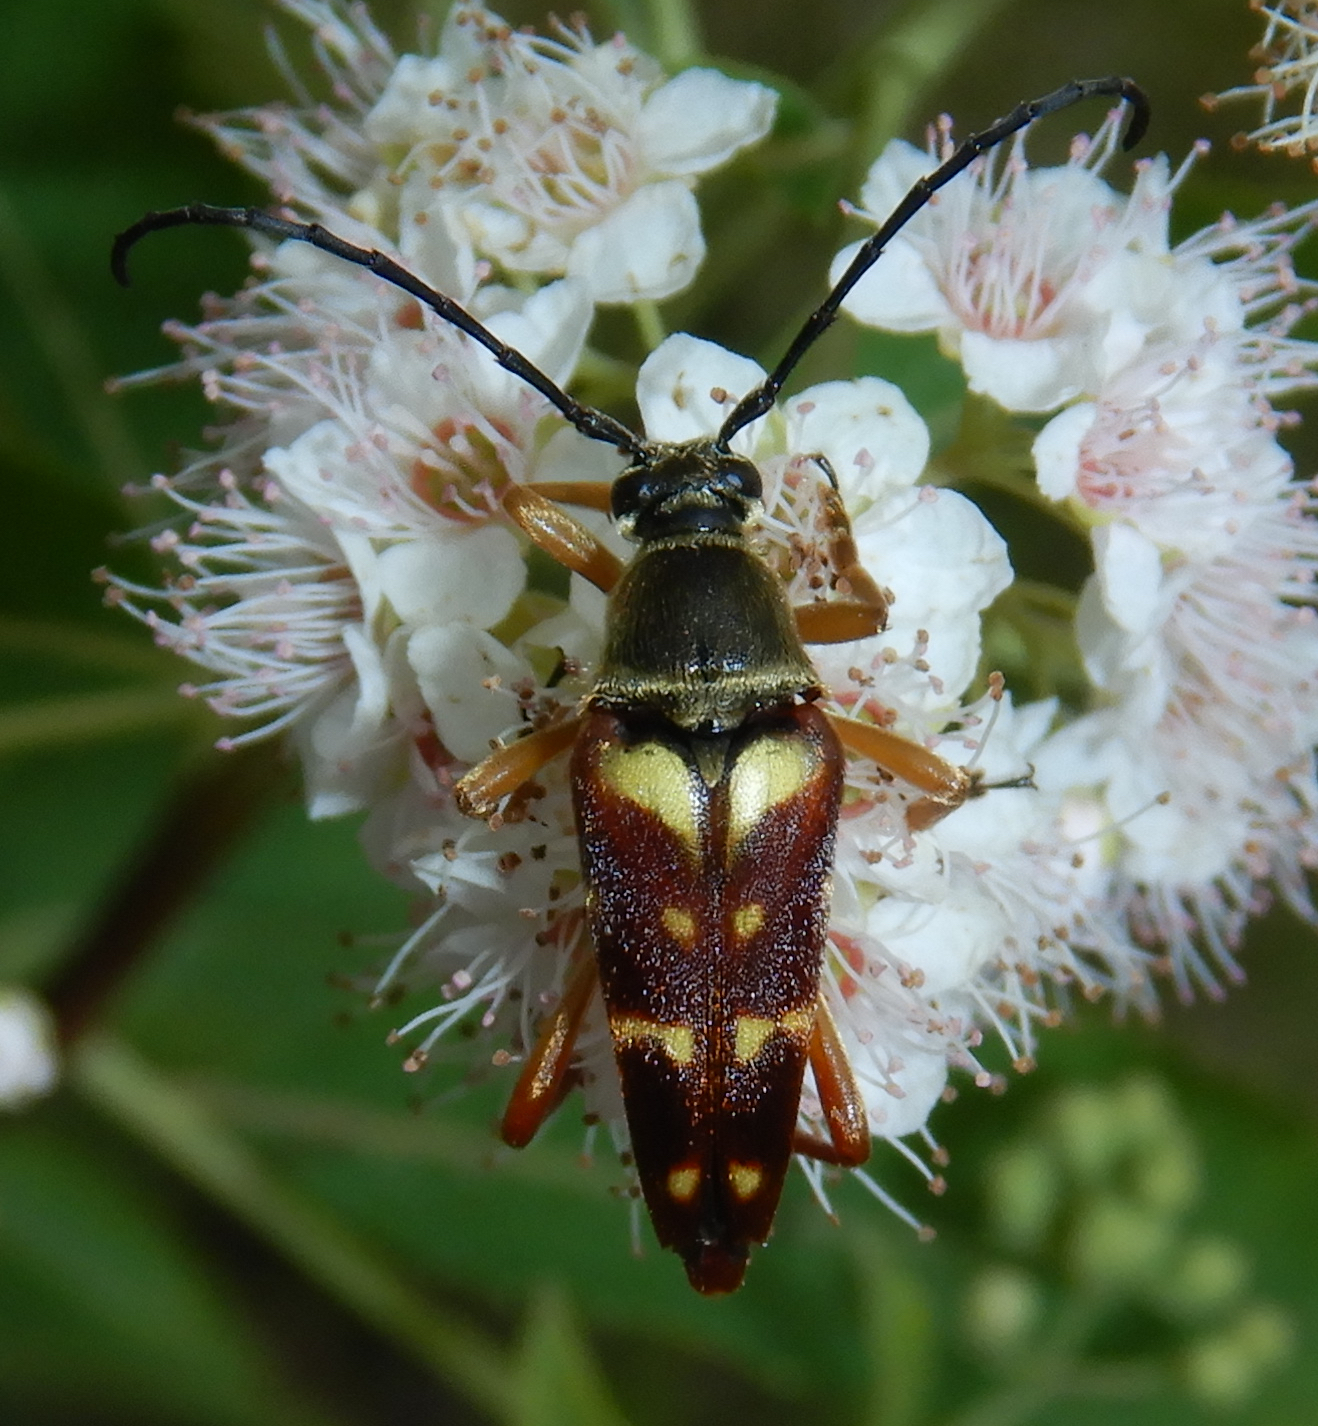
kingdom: Animalia
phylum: Arthropoda
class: Insecta
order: Coleoptera
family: Cerambycidae
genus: Typocerus
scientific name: Typocerus velutinus
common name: Banded longhorn beetle
